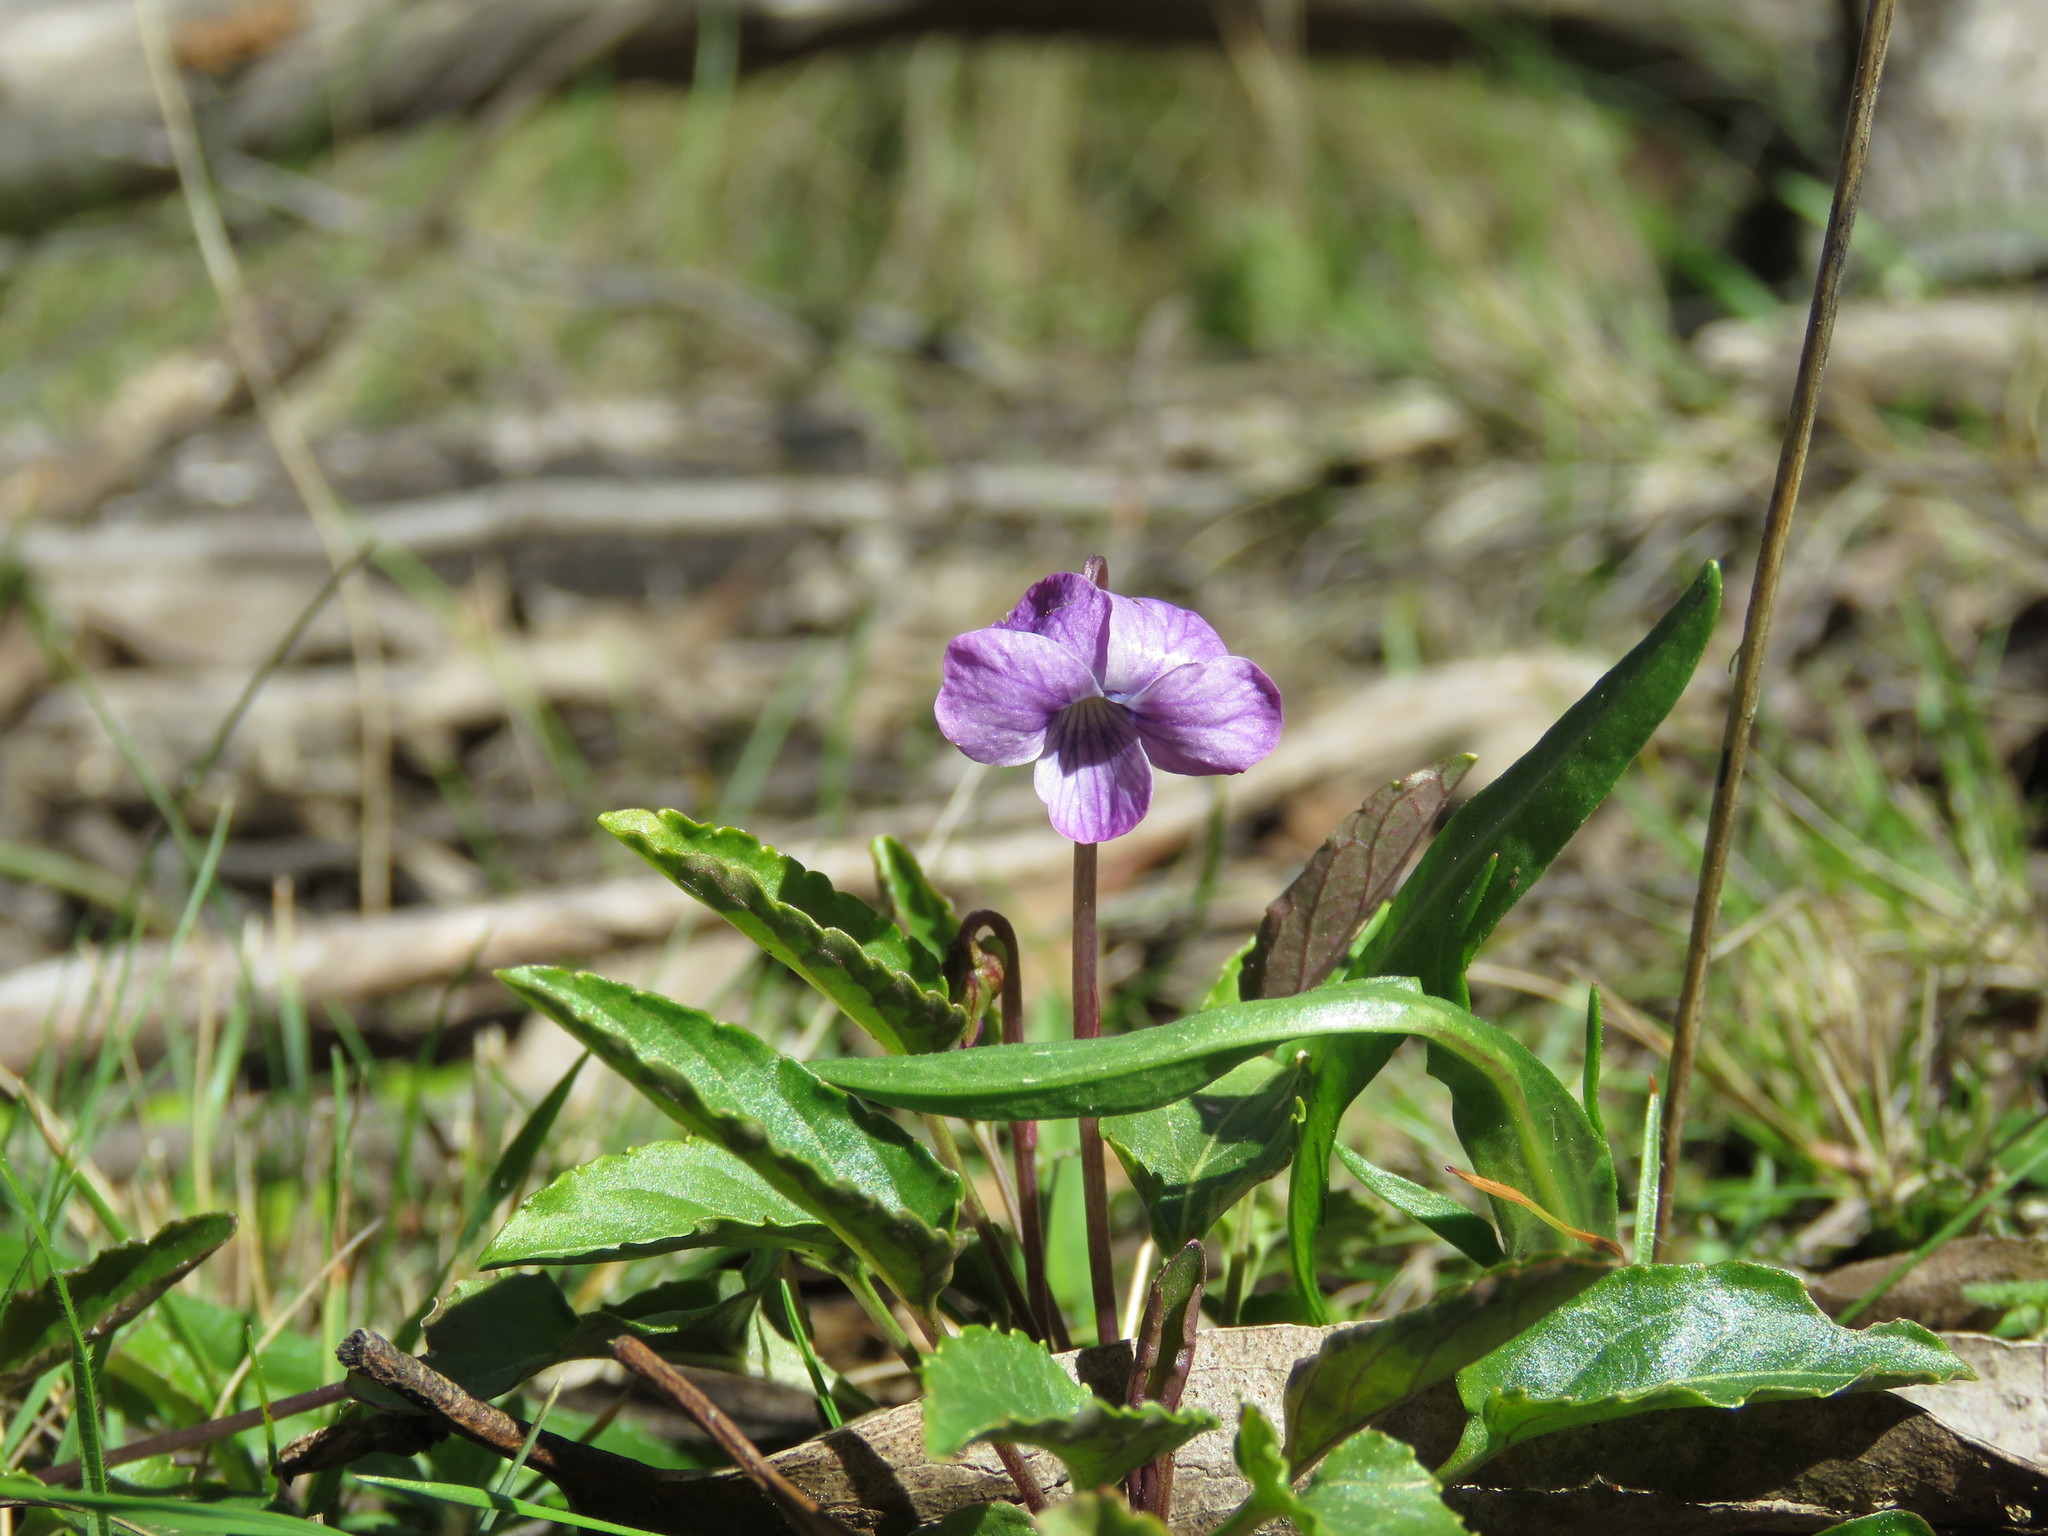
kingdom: Plantae
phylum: Tracheophyta
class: Magnoliopsida
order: Malpighiales
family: Violaceae
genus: Viola
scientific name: Viola betonicifolia
